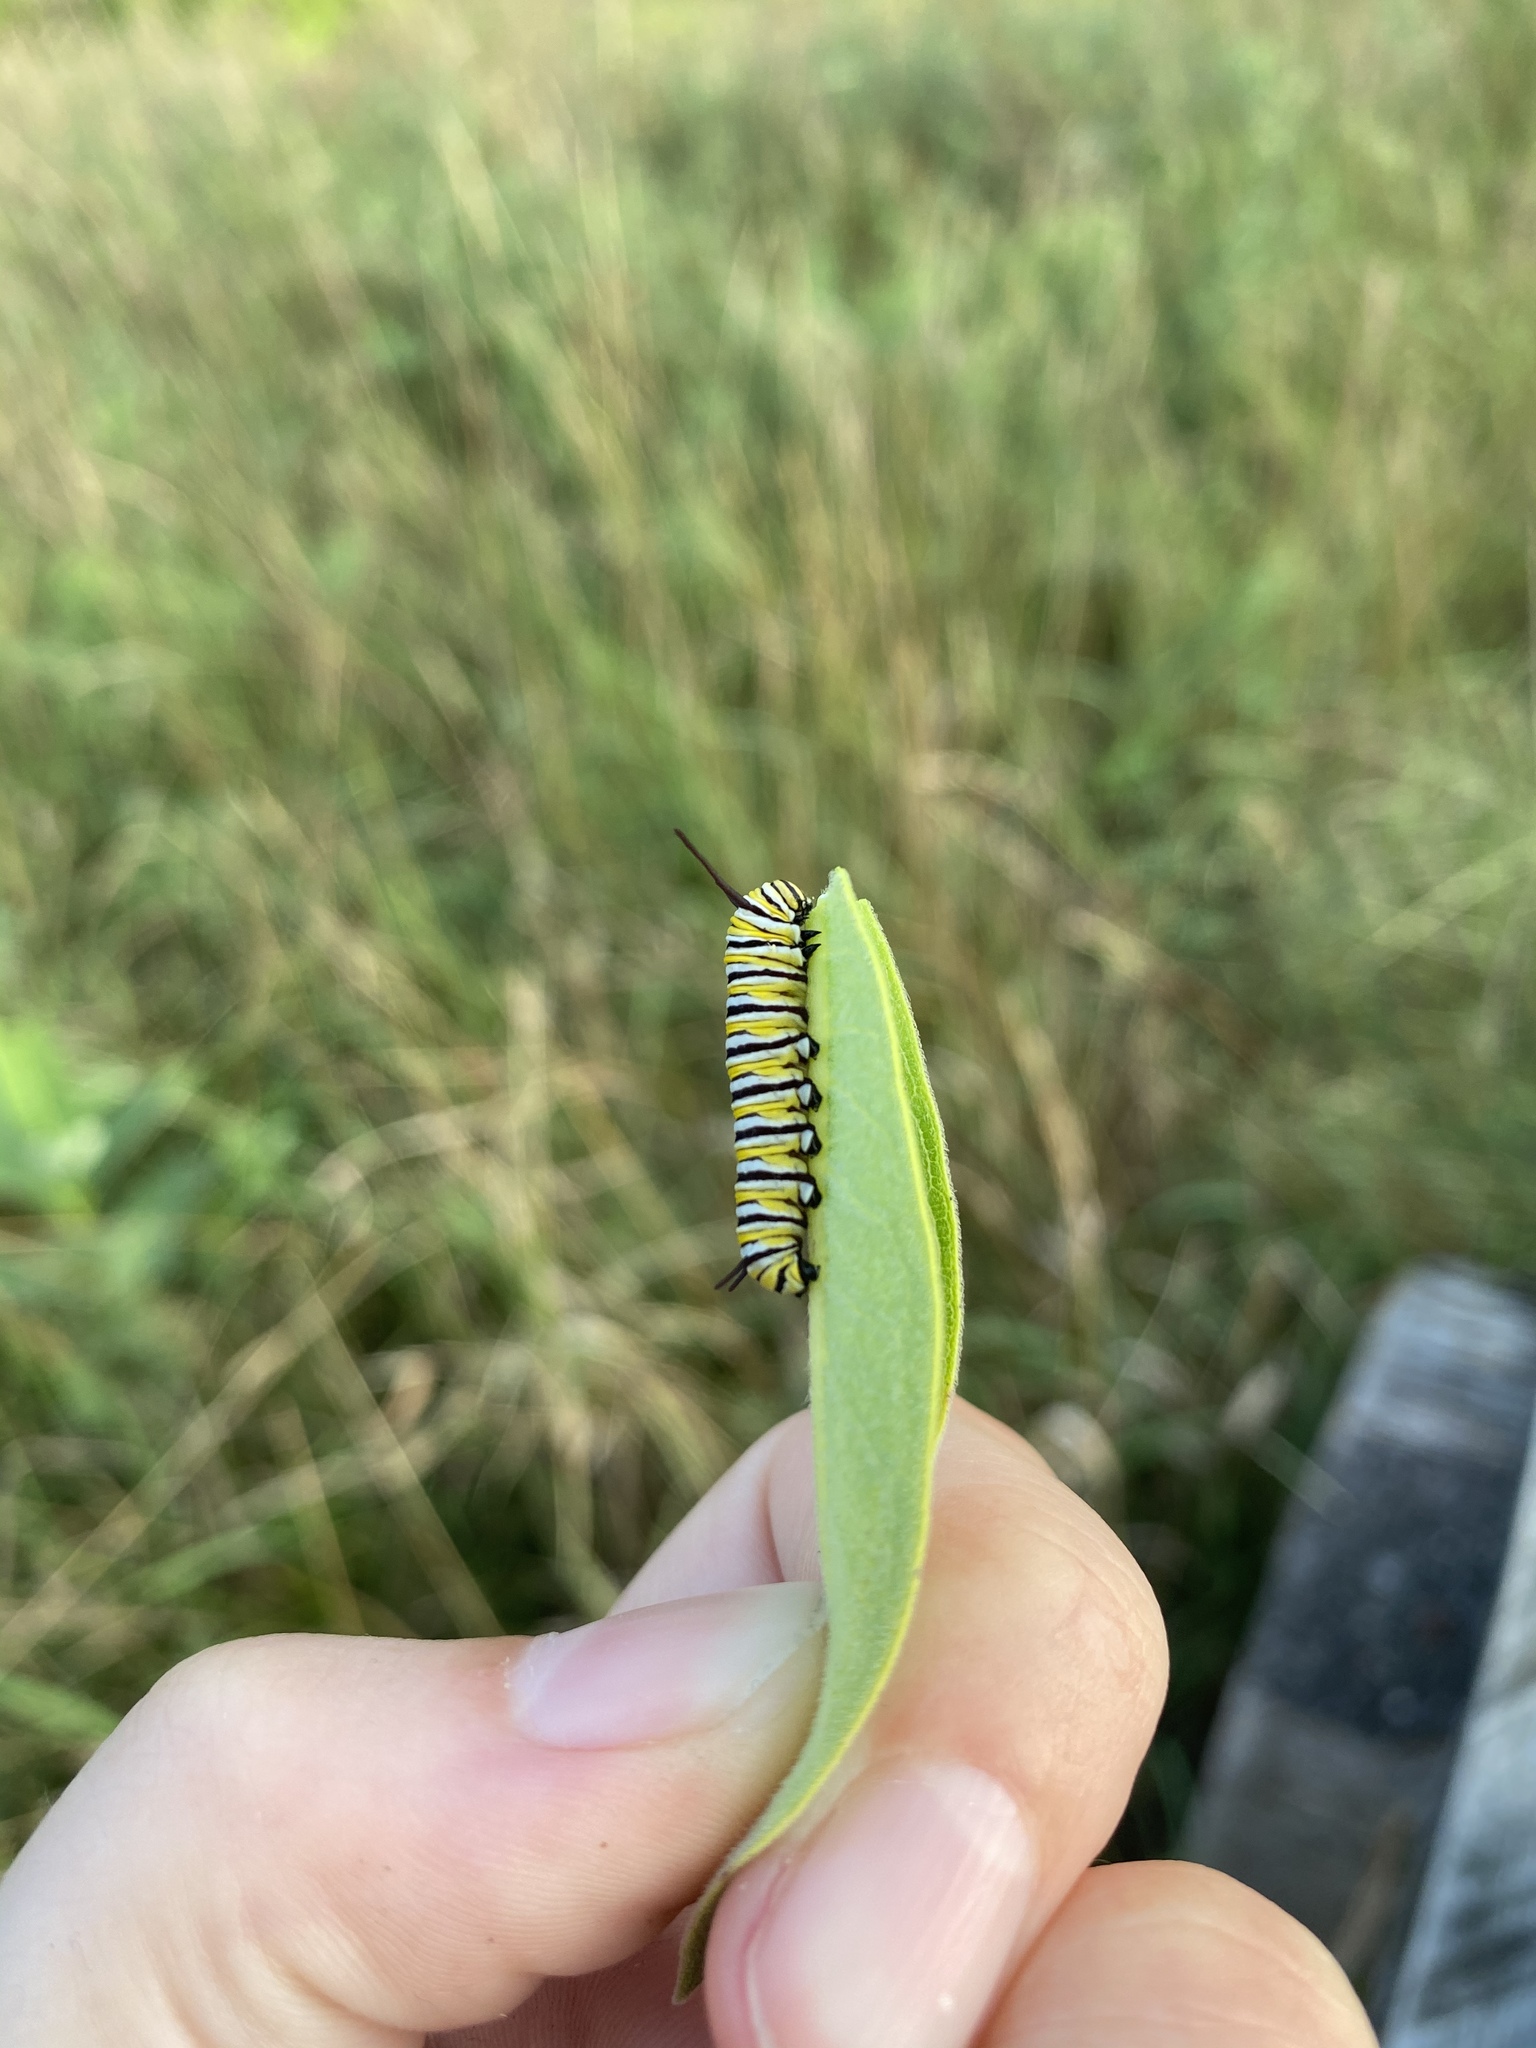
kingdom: Animalia
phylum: Arthropoda
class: Insecta
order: Lepidoptera
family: Nymphalidae
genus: Danaus
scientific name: Danaus plexippus
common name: Monarch
